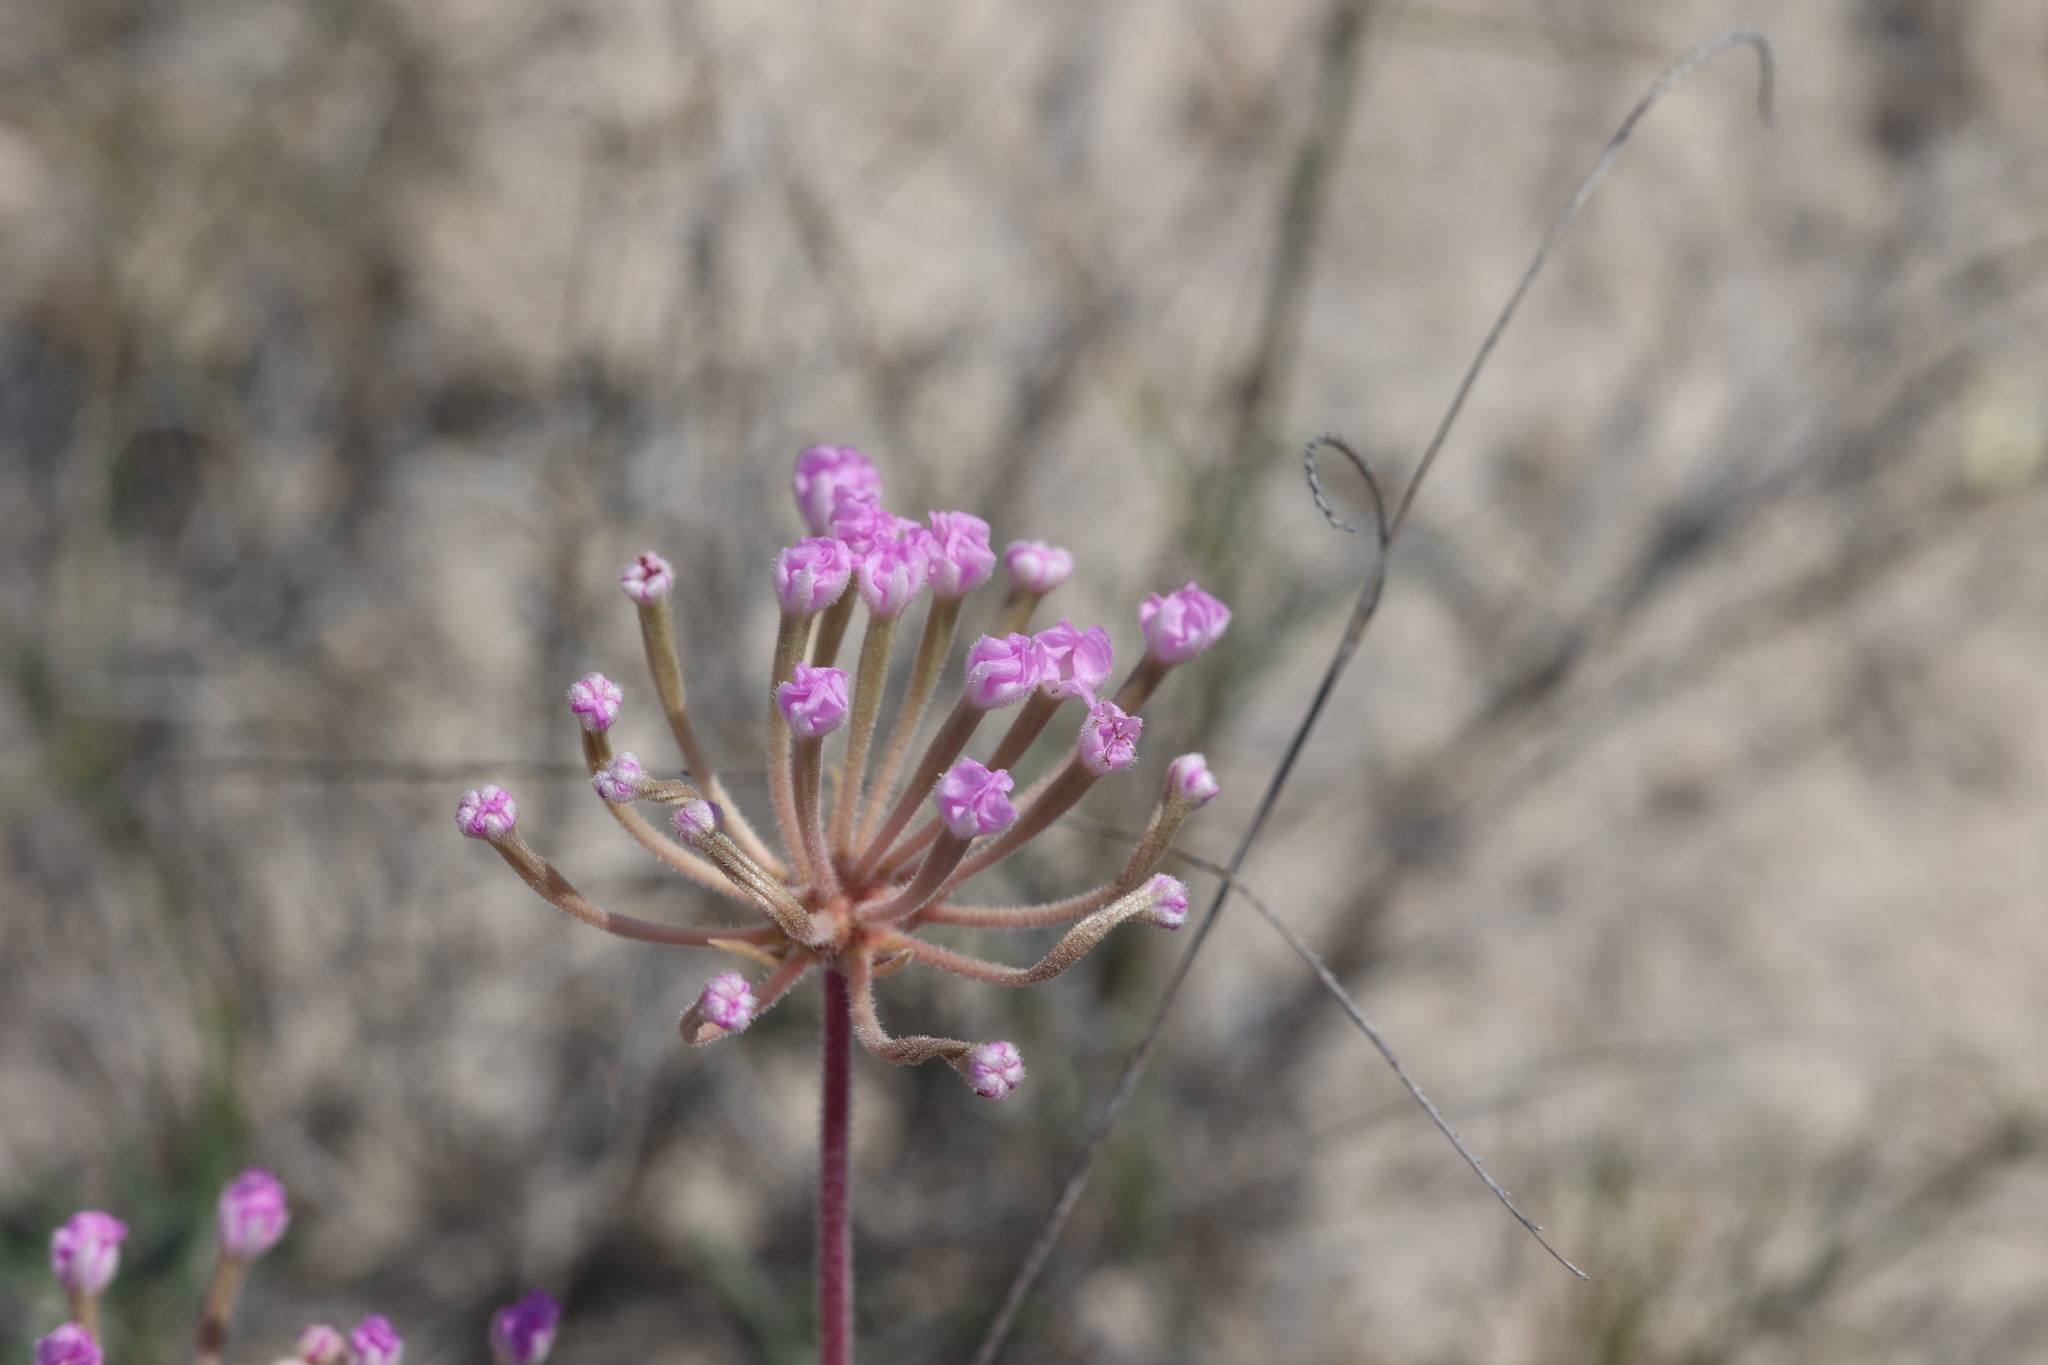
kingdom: Plantae
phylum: Tracheophyta
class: Magnoliopsida
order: Caryophyllales
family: Nyctaginaceae
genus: Abronia
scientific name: Abronia angustifolia
